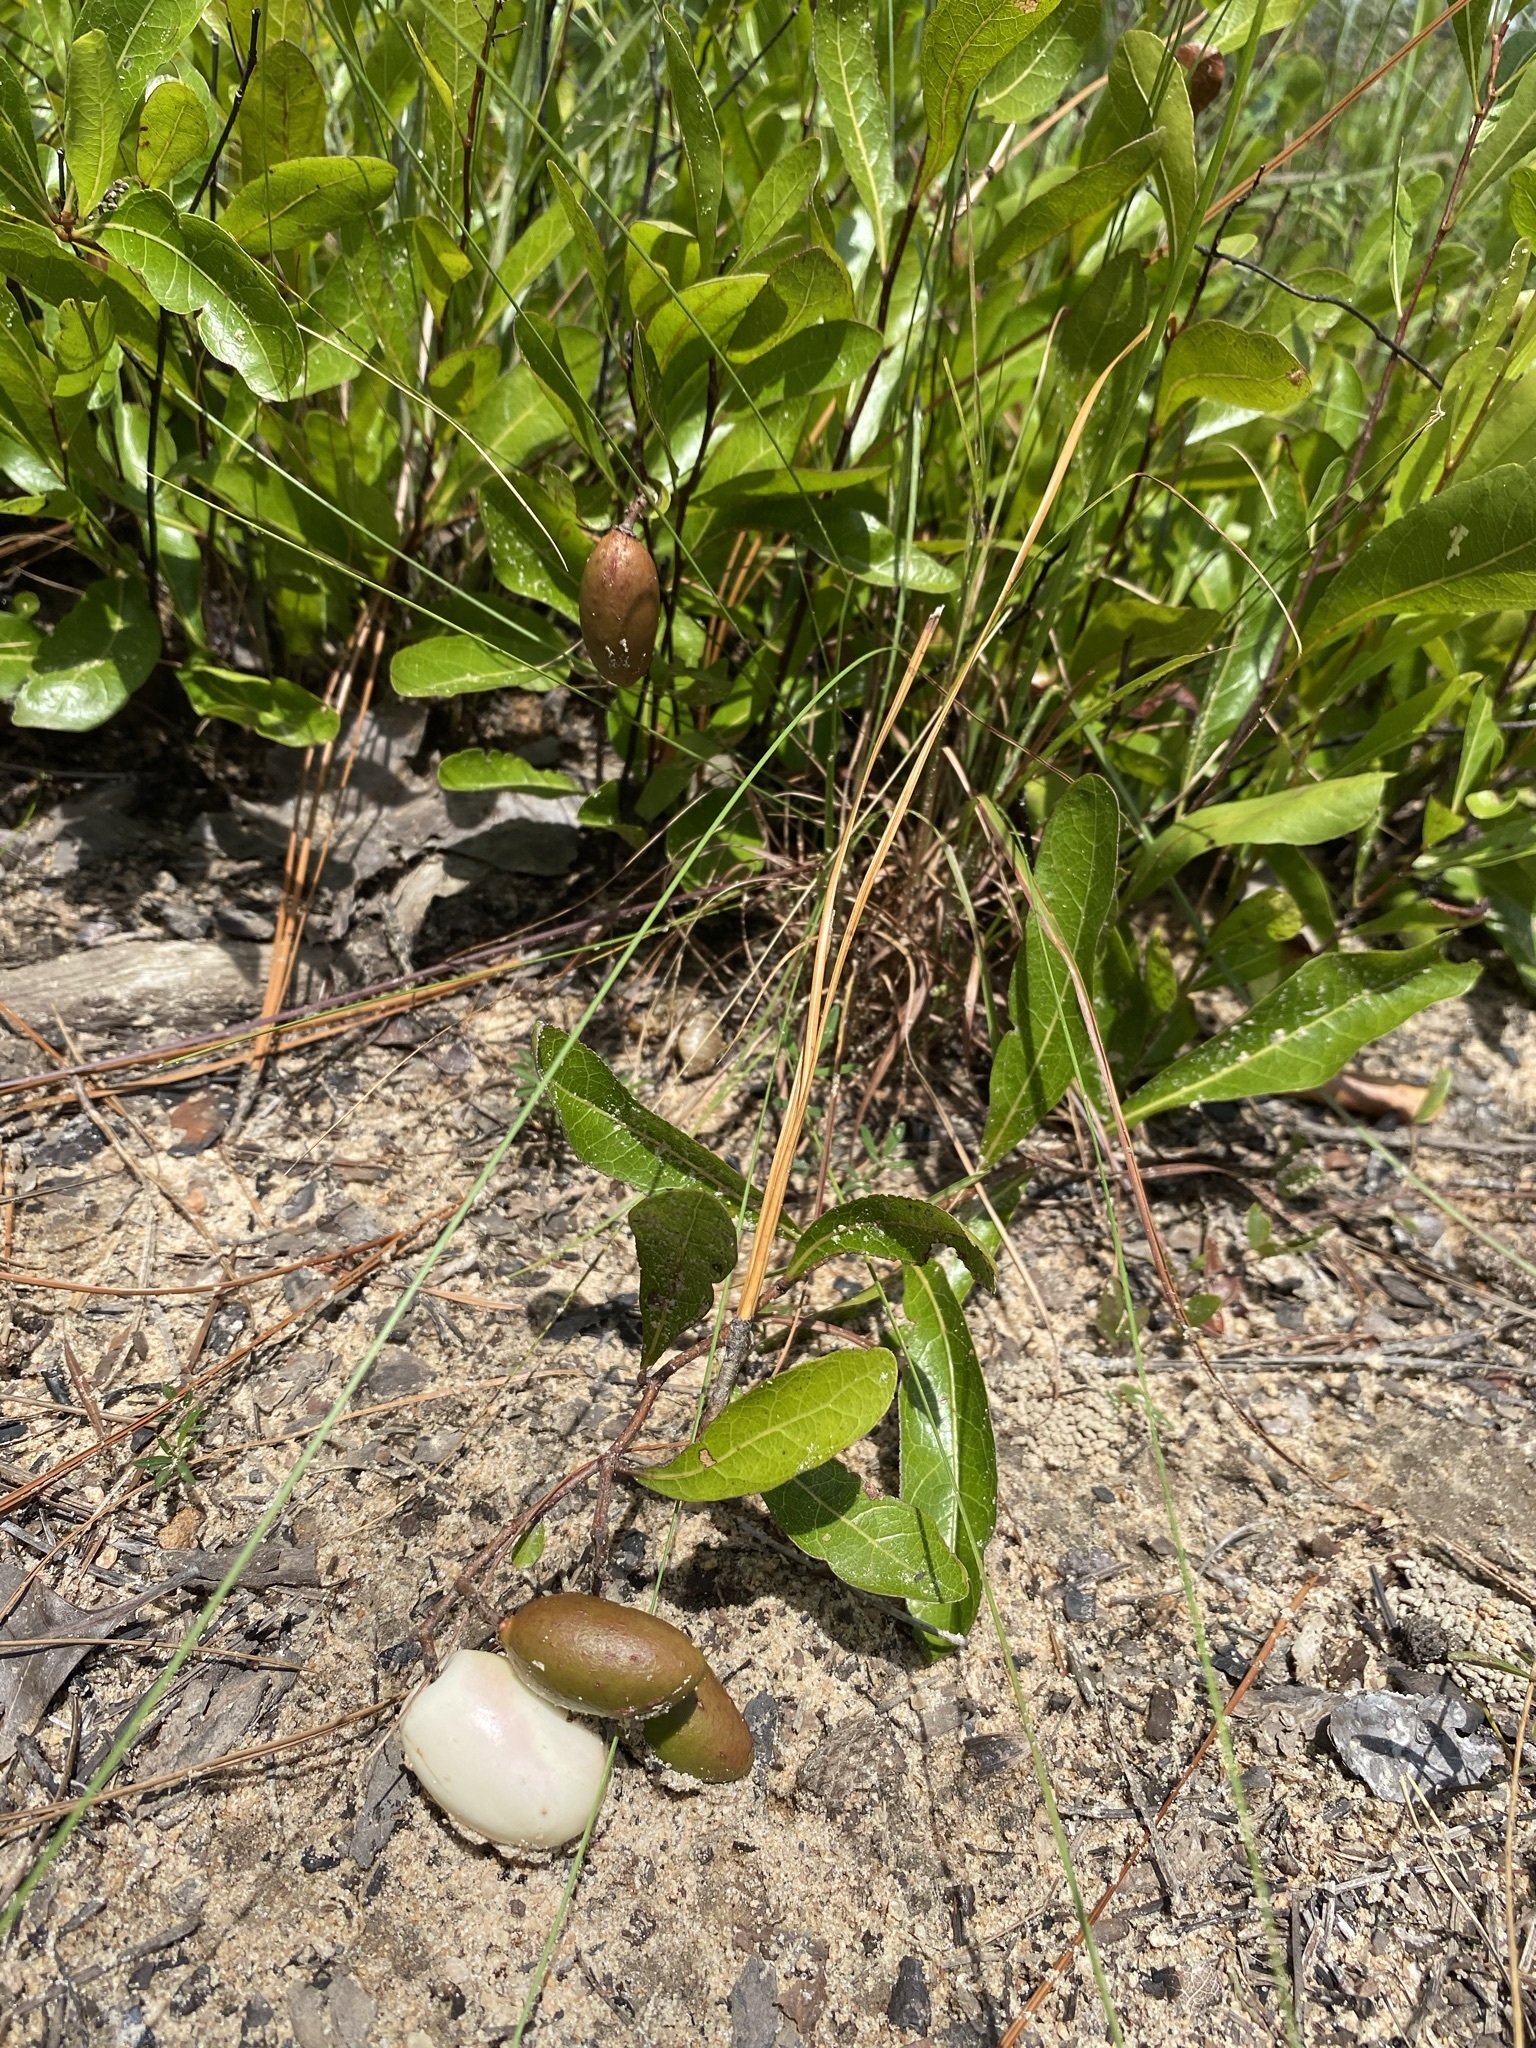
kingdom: Plantae
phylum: Tracheophyta
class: Magnoliopsida
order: Malpighiales
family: Chrysobalanaceae
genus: Geobalanus
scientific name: Geobalanus oblongifolius
